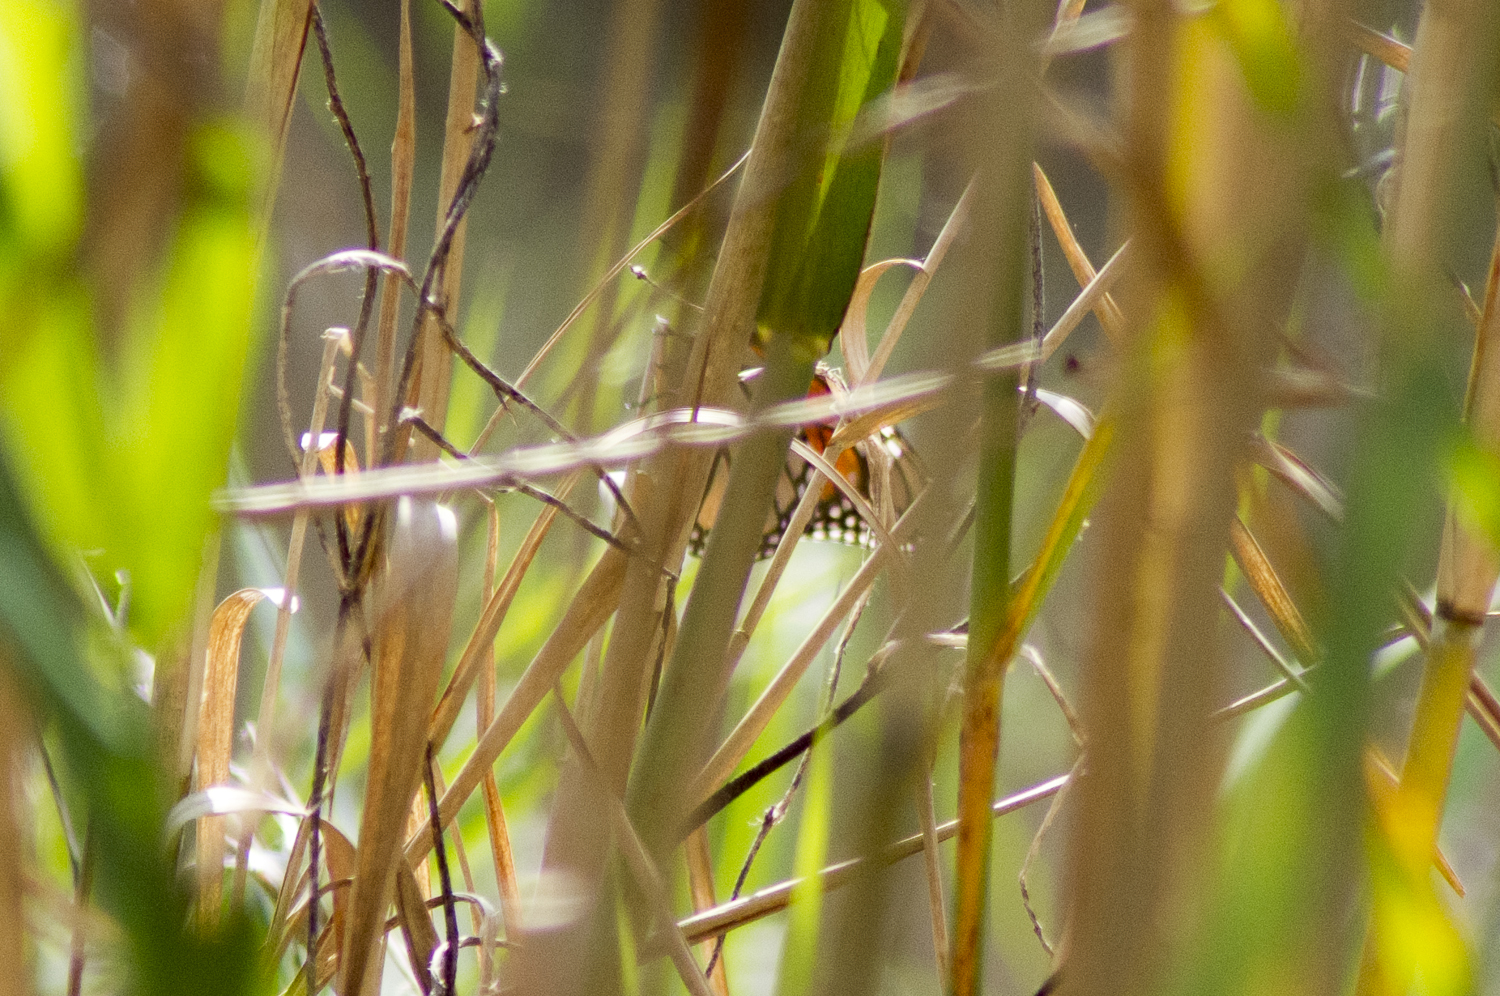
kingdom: Animalia
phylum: Arthropoda
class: Insecta
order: Lepidoptera
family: Nymphalidae
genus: Danaus
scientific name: Danaus plexippus
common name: Monarch
